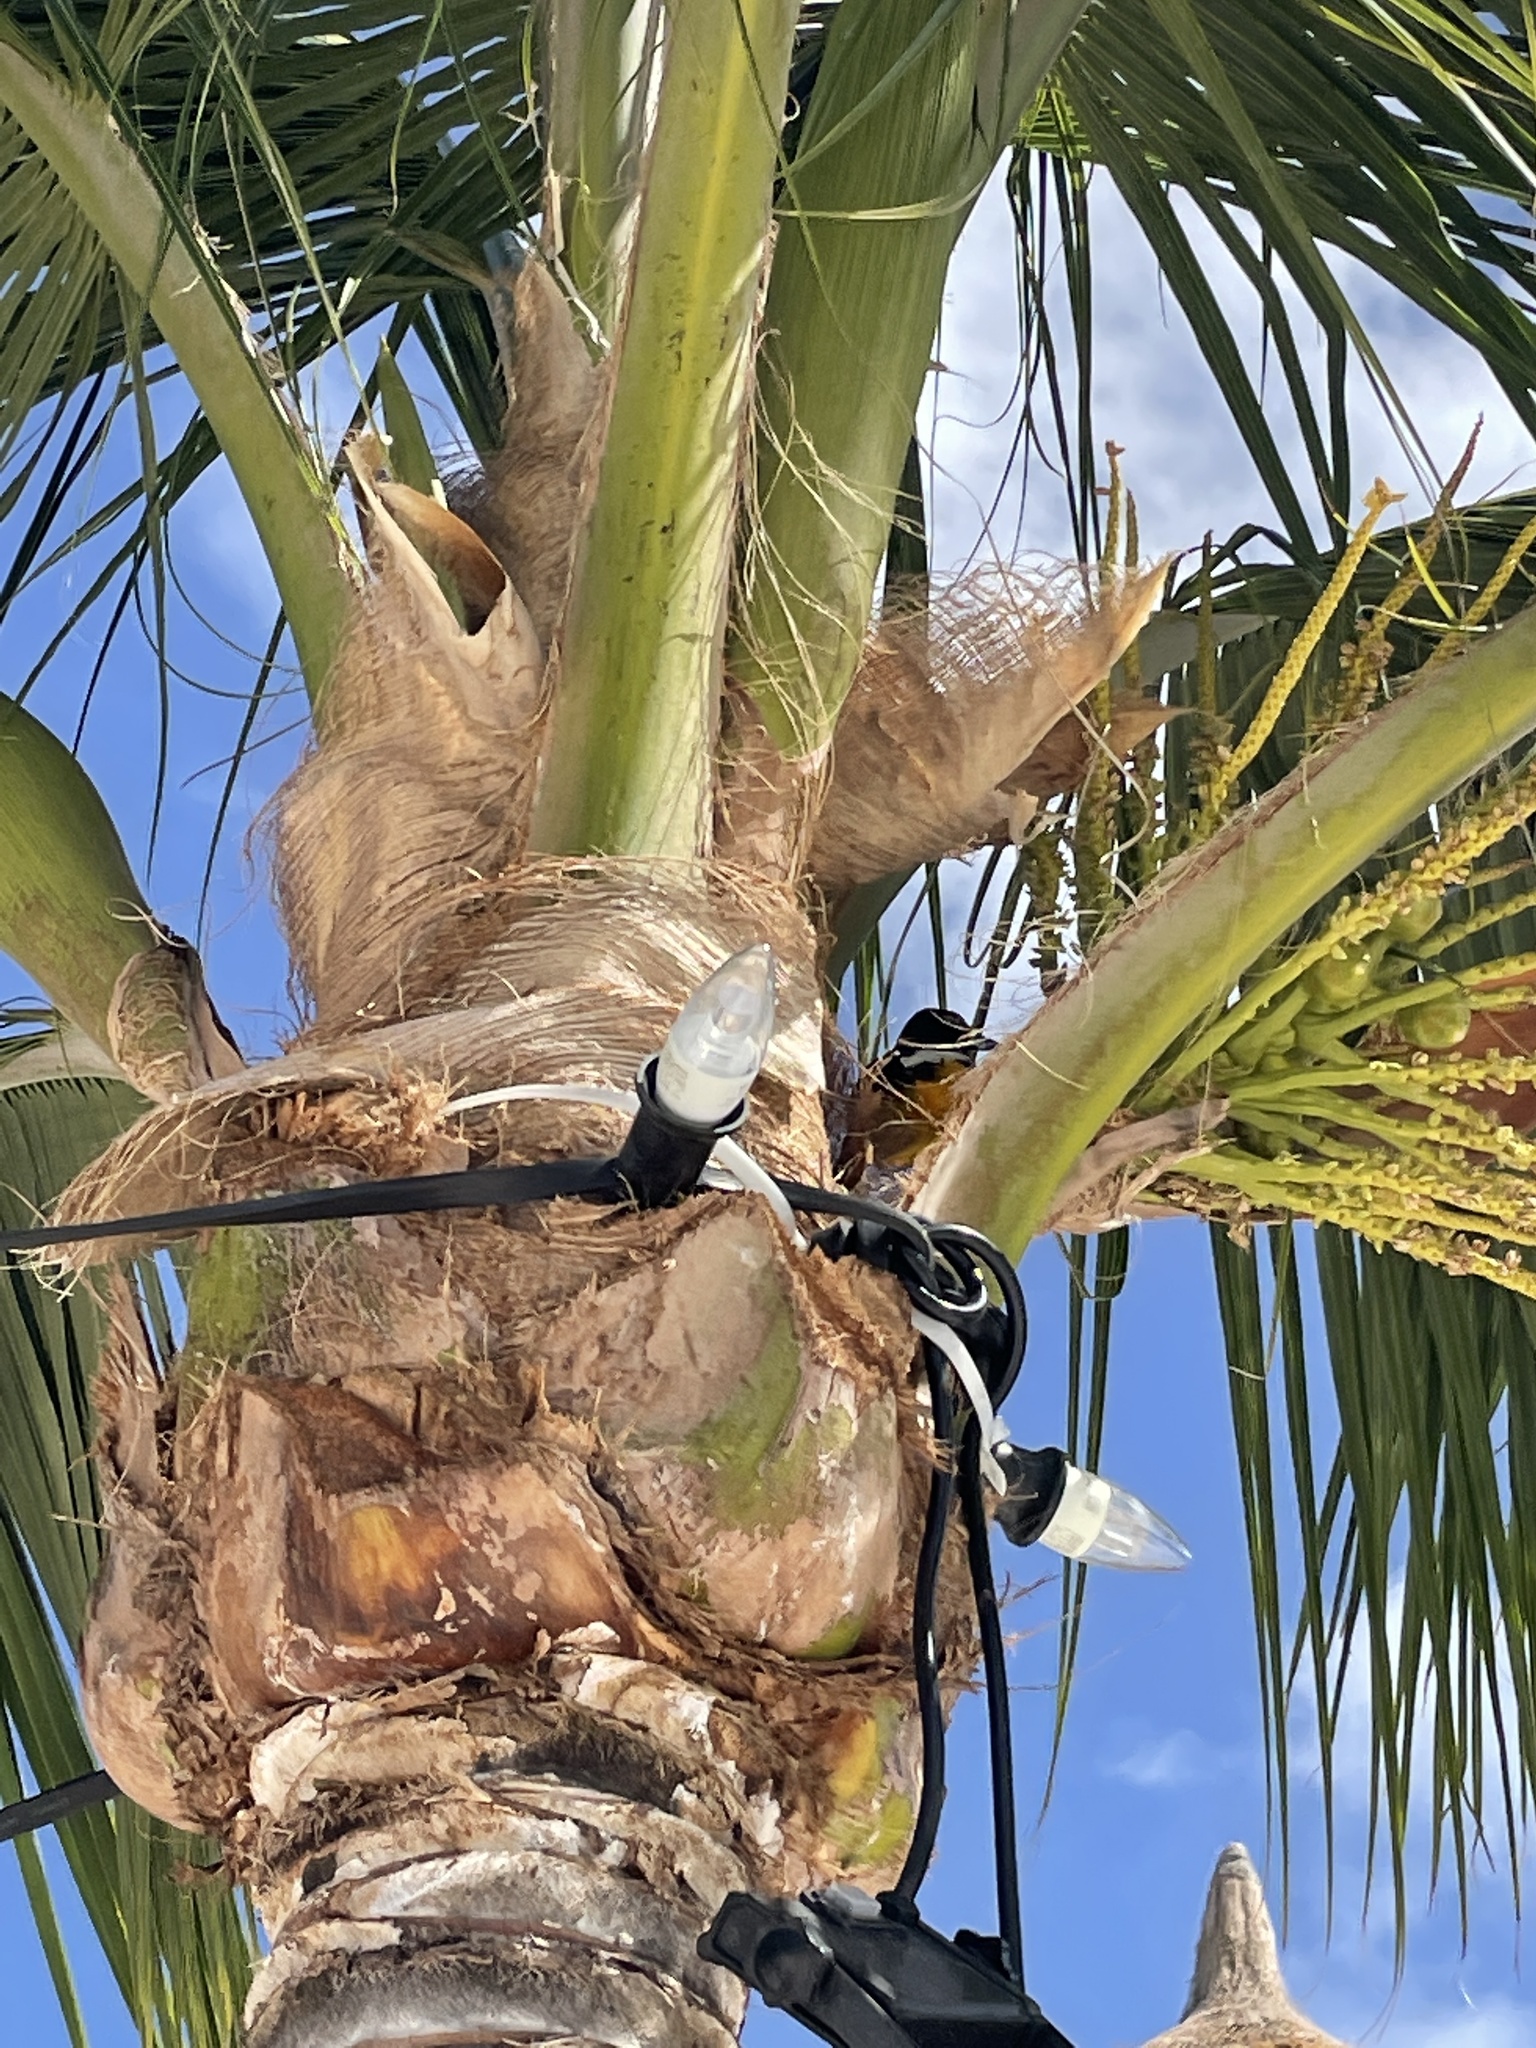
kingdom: Animalia
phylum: Chordata
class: Aves
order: Passeriformes
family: Icteridae
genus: Icterus
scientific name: Icterus icterus
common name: Venezuelan troupial
